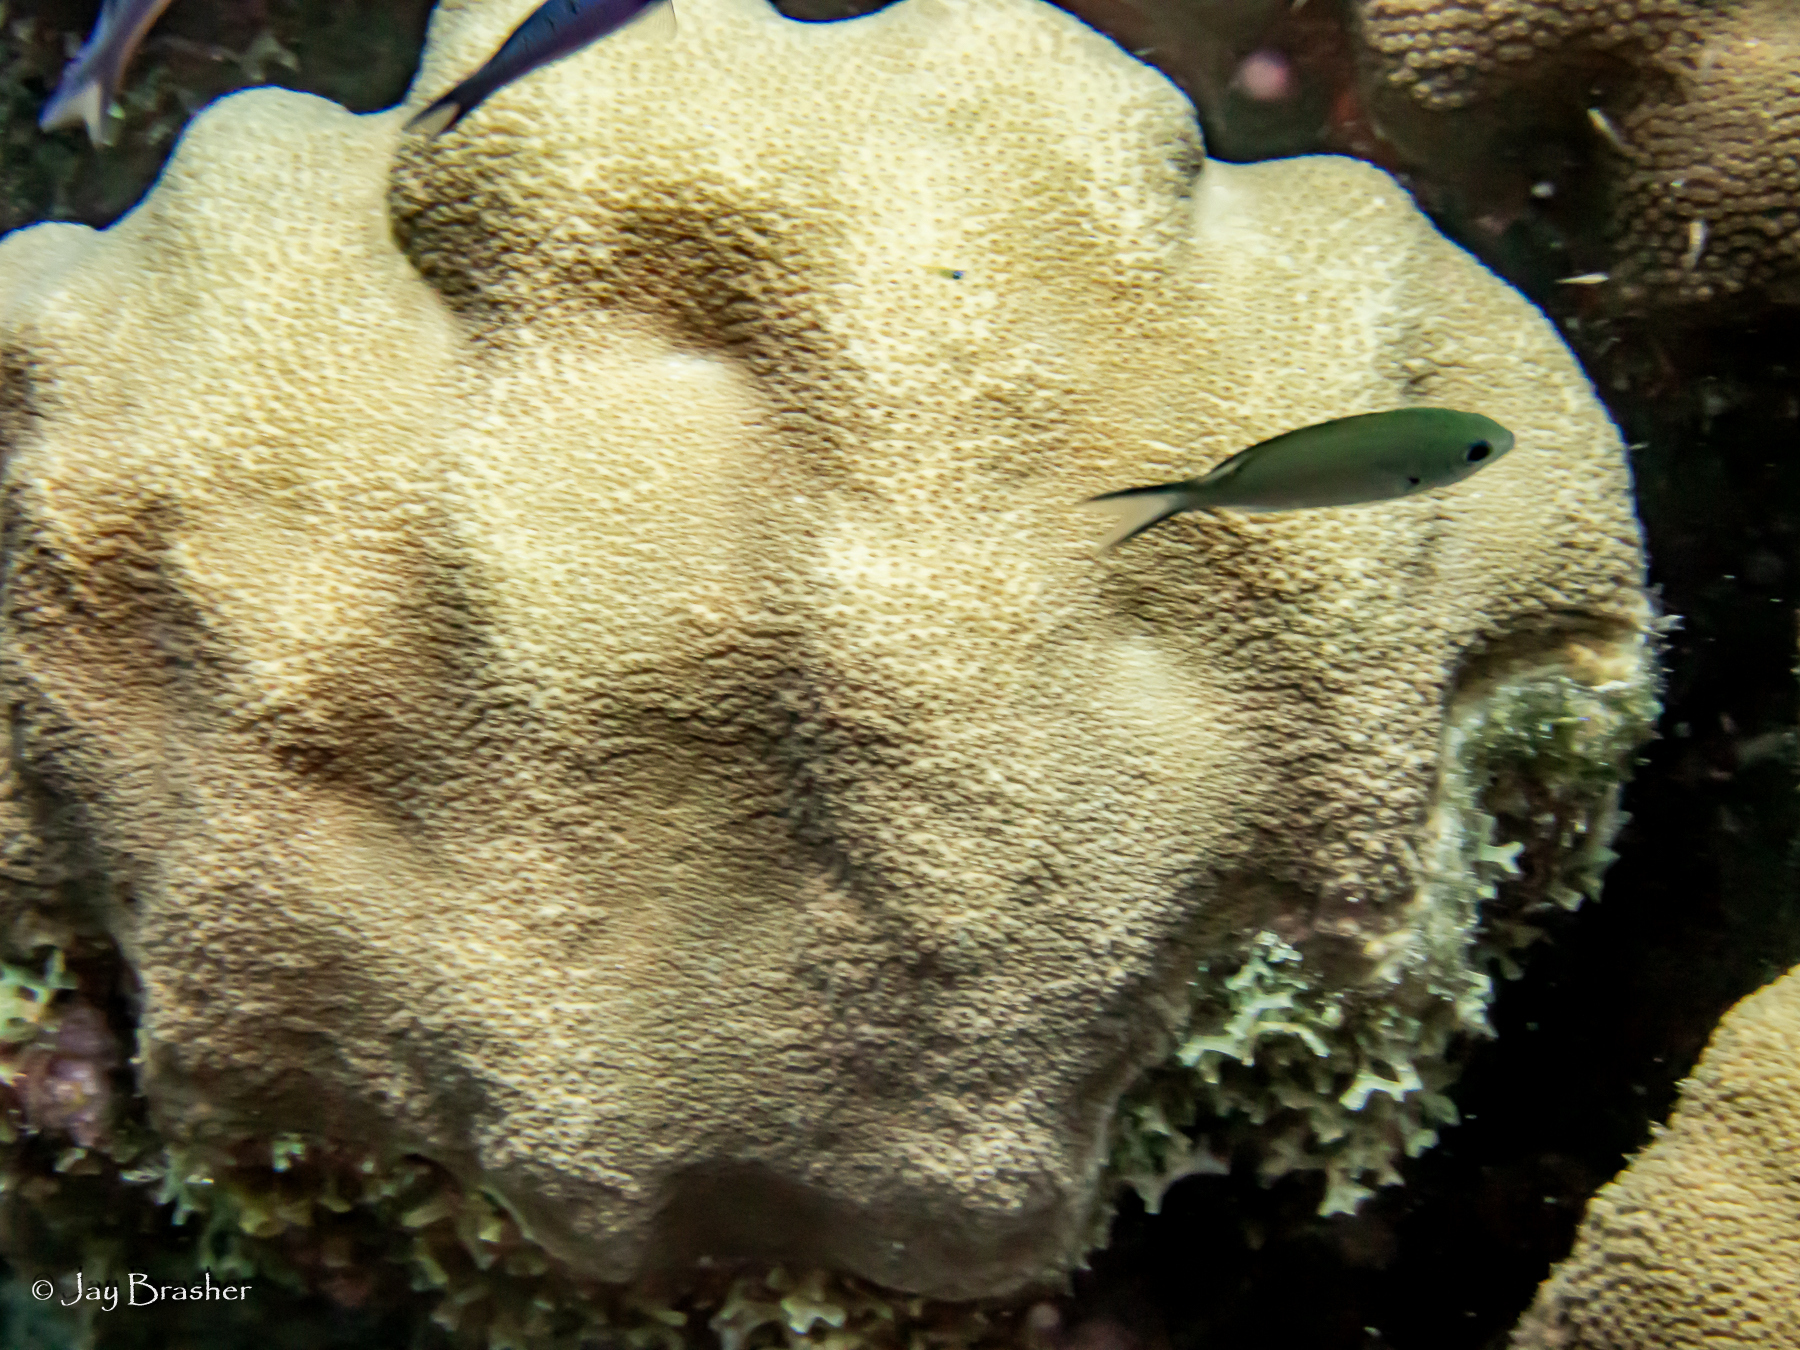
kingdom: Animalia
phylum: Chordata
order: Perciformes
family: Pomacentridae
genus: Chromis
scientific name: Chromis multilineata
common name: Brown chromis
